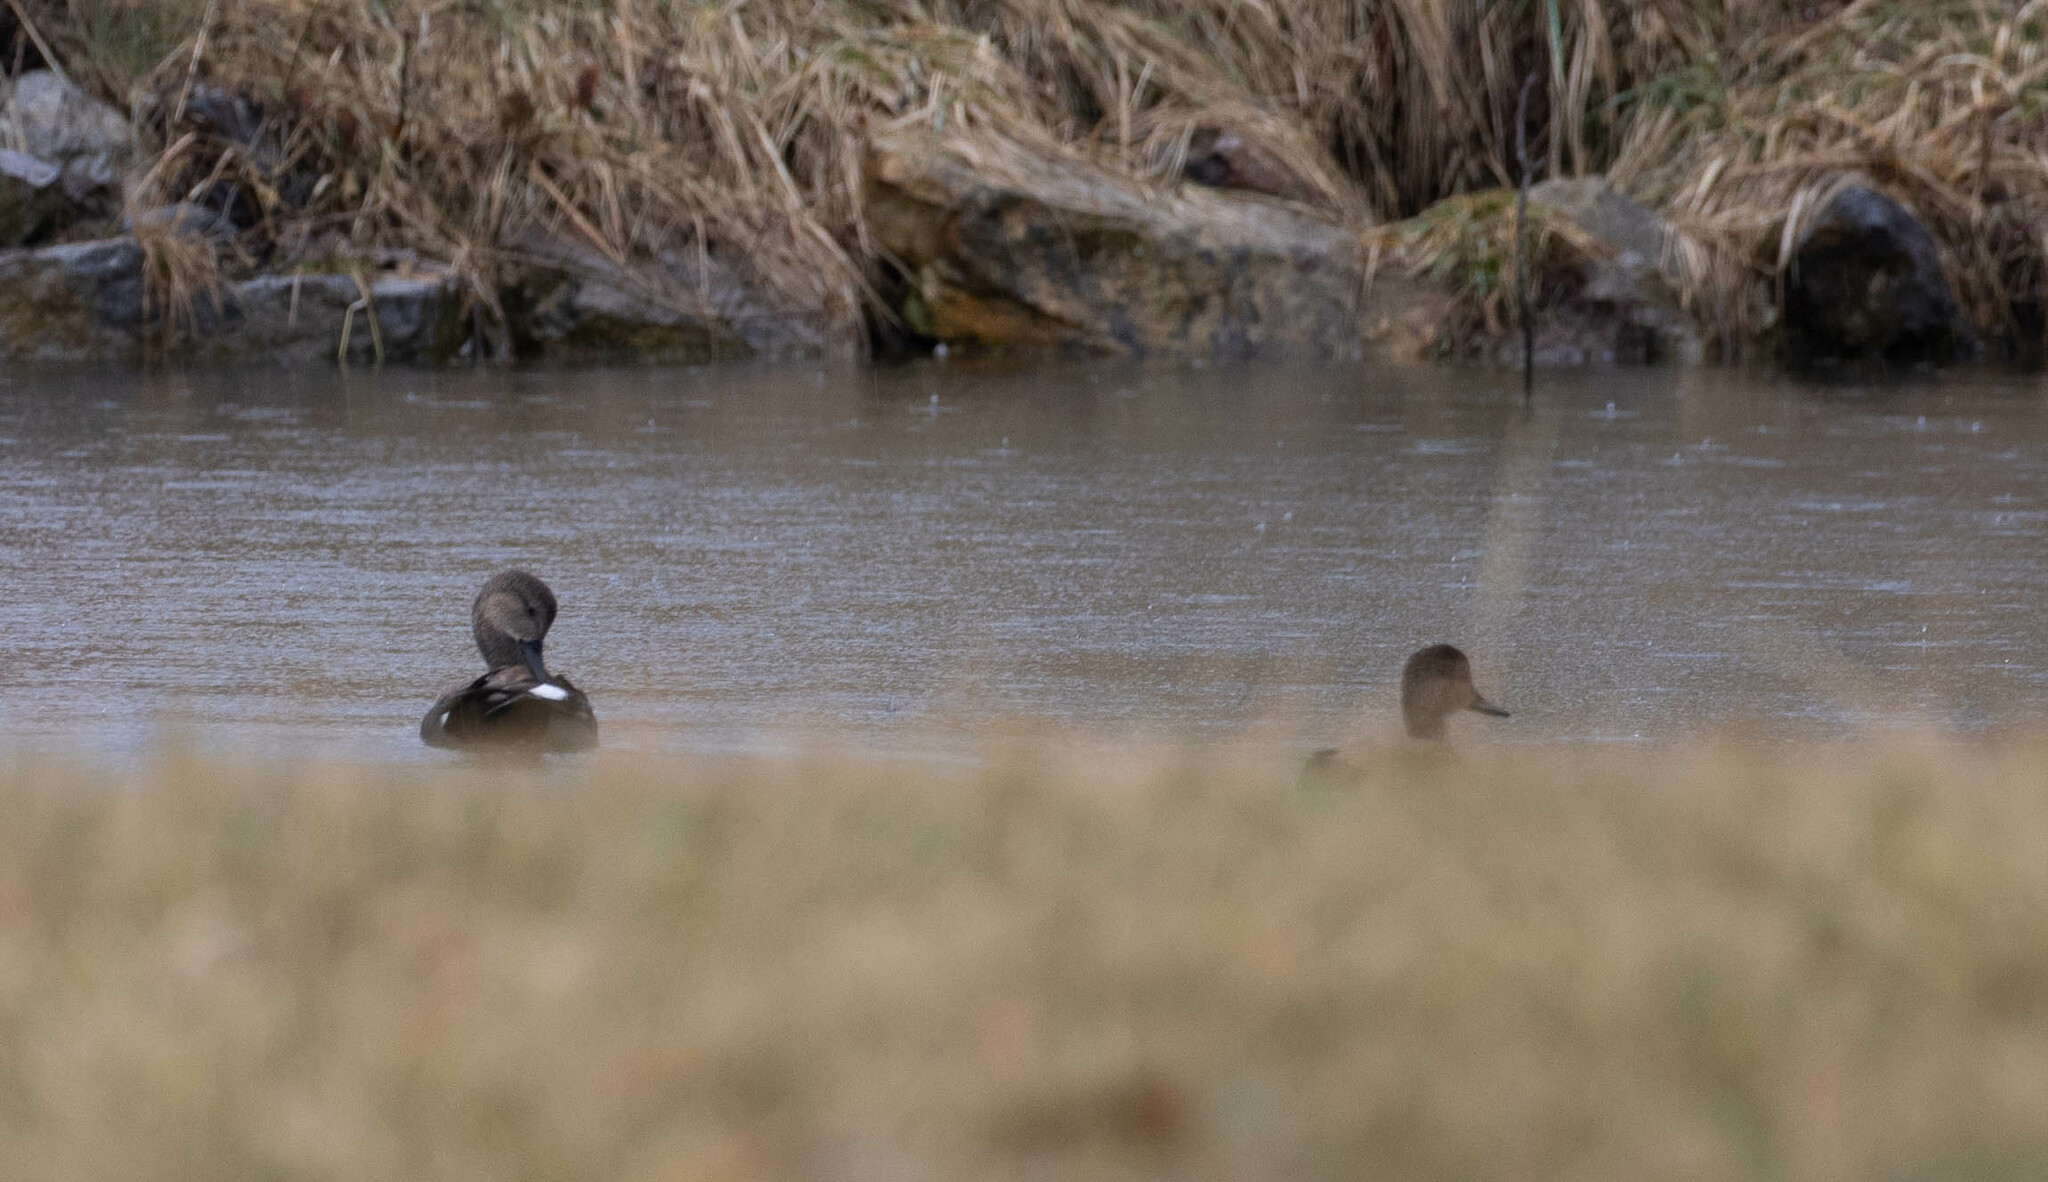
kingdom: Animalia
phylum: Chordata
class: Aves
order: Anseriformes
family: Anatidae
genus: Mareca
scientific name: Mareca strepera
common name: Gadwall
